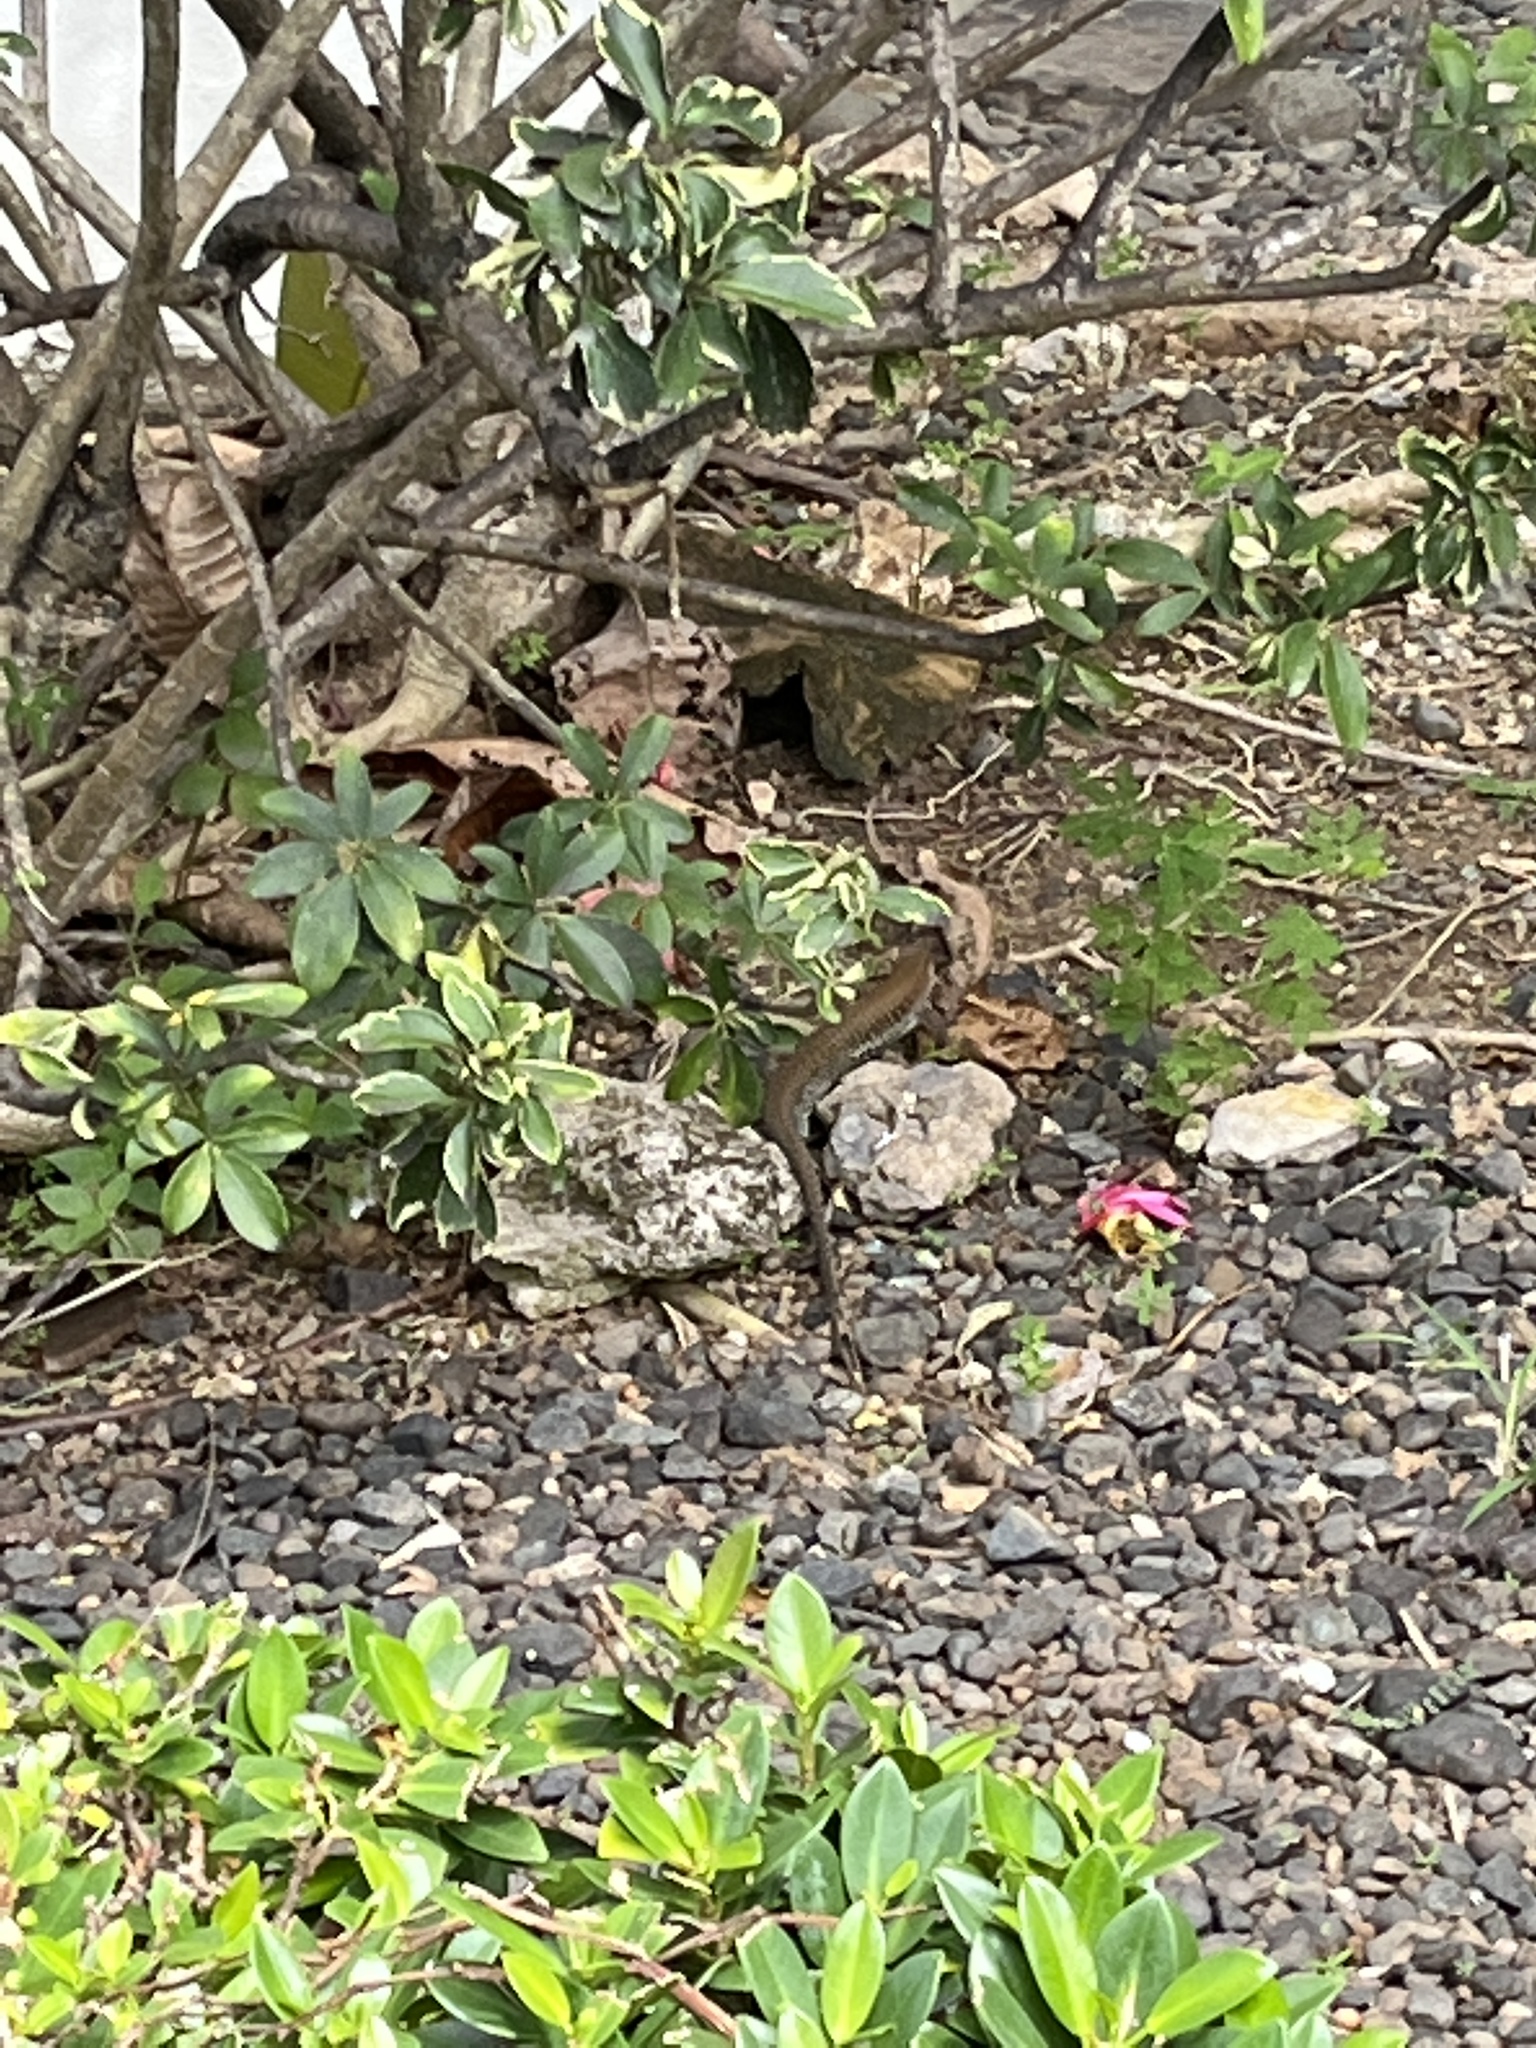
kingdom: Animalia
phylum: Chordata
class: Squamata
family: Teiidae
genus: Pholidoscelis
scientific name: Pholidoscelis exsul
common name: Common puerto rican ameiva
